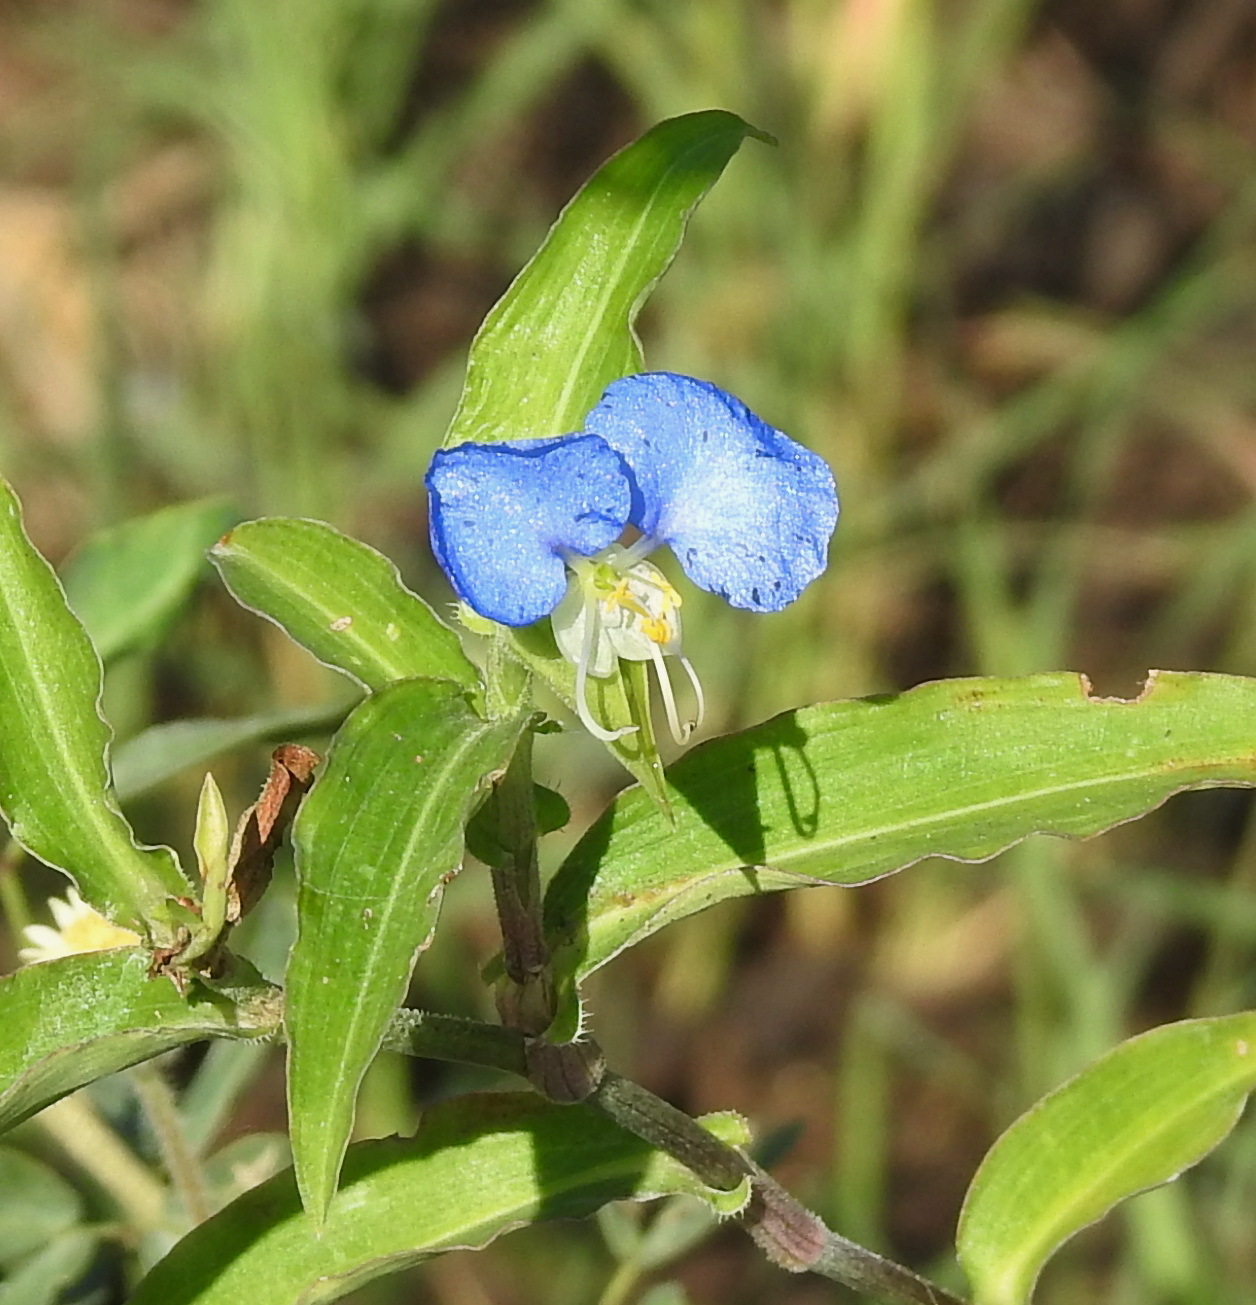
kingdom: Plantae
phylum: Tracheophyta
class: Liliopsida
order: Commelinales
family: Commelinaceae
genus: Commelina
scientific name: Commelina erecta
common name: Blousel blommetjie
